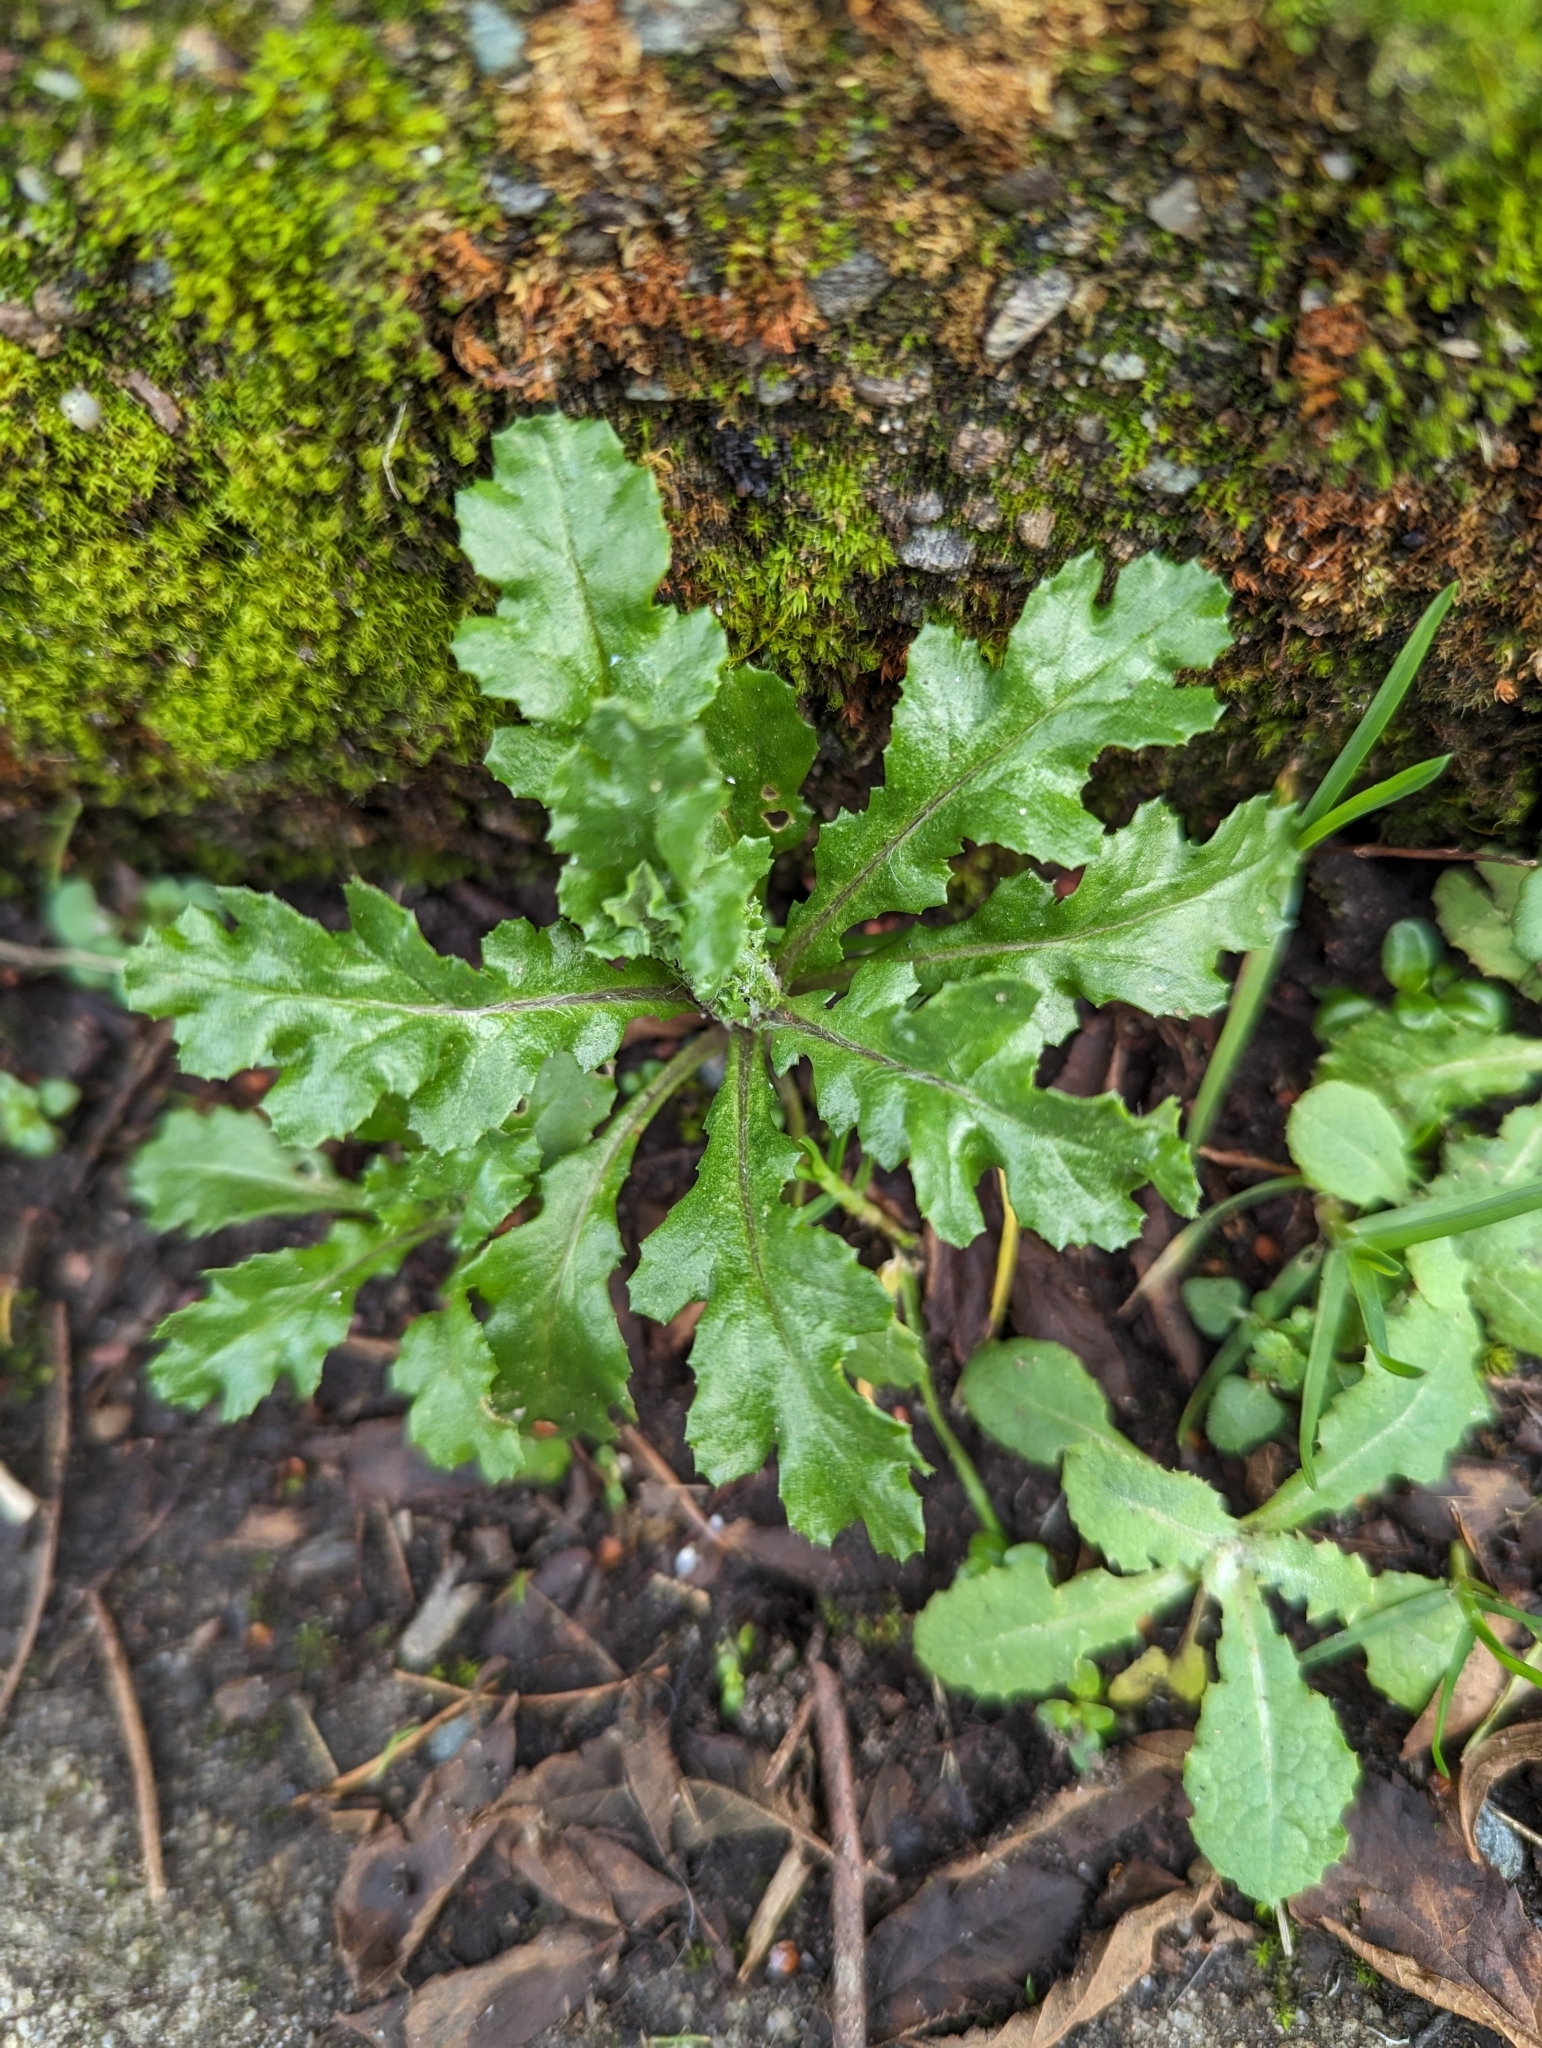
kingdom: Plantae
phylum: Tracheophyta
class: Magnoliopsida
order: Asterales
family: Asteraceae
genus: Senecio
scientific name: Senecio vulgaris
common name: Old-man-in-the-spring
